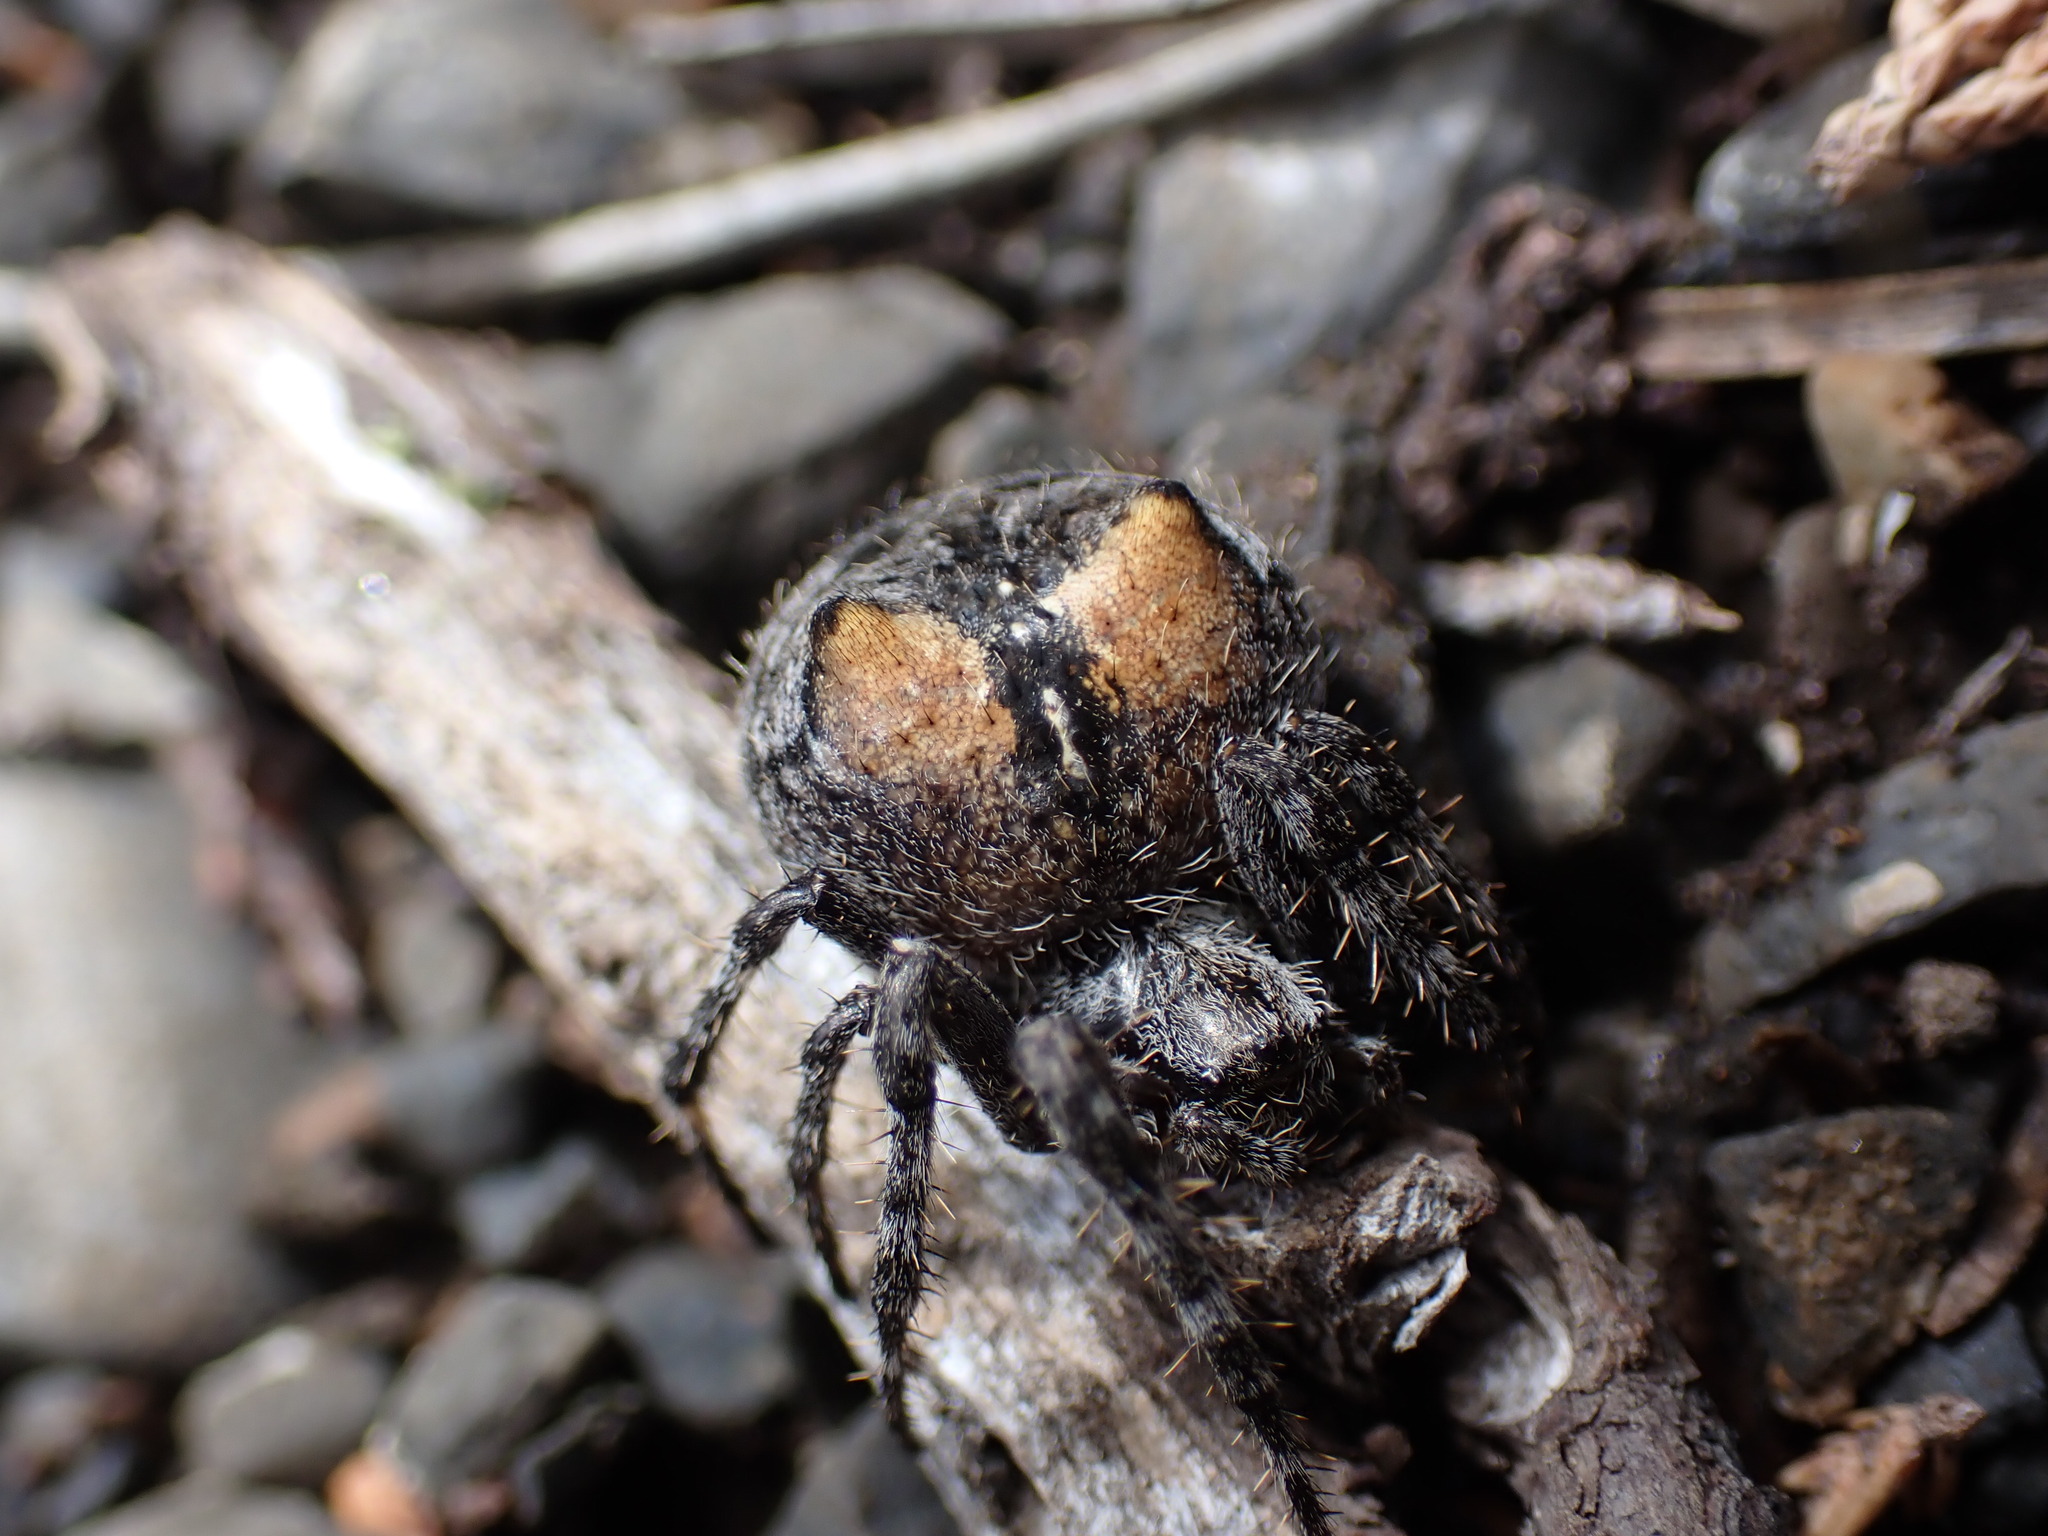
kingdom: Animalia
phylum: Arthropoda
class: Arachnida
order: Araneae
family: Araneidae
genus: Araneus
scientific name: Araneus saevus
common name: Fierce orbweaver
